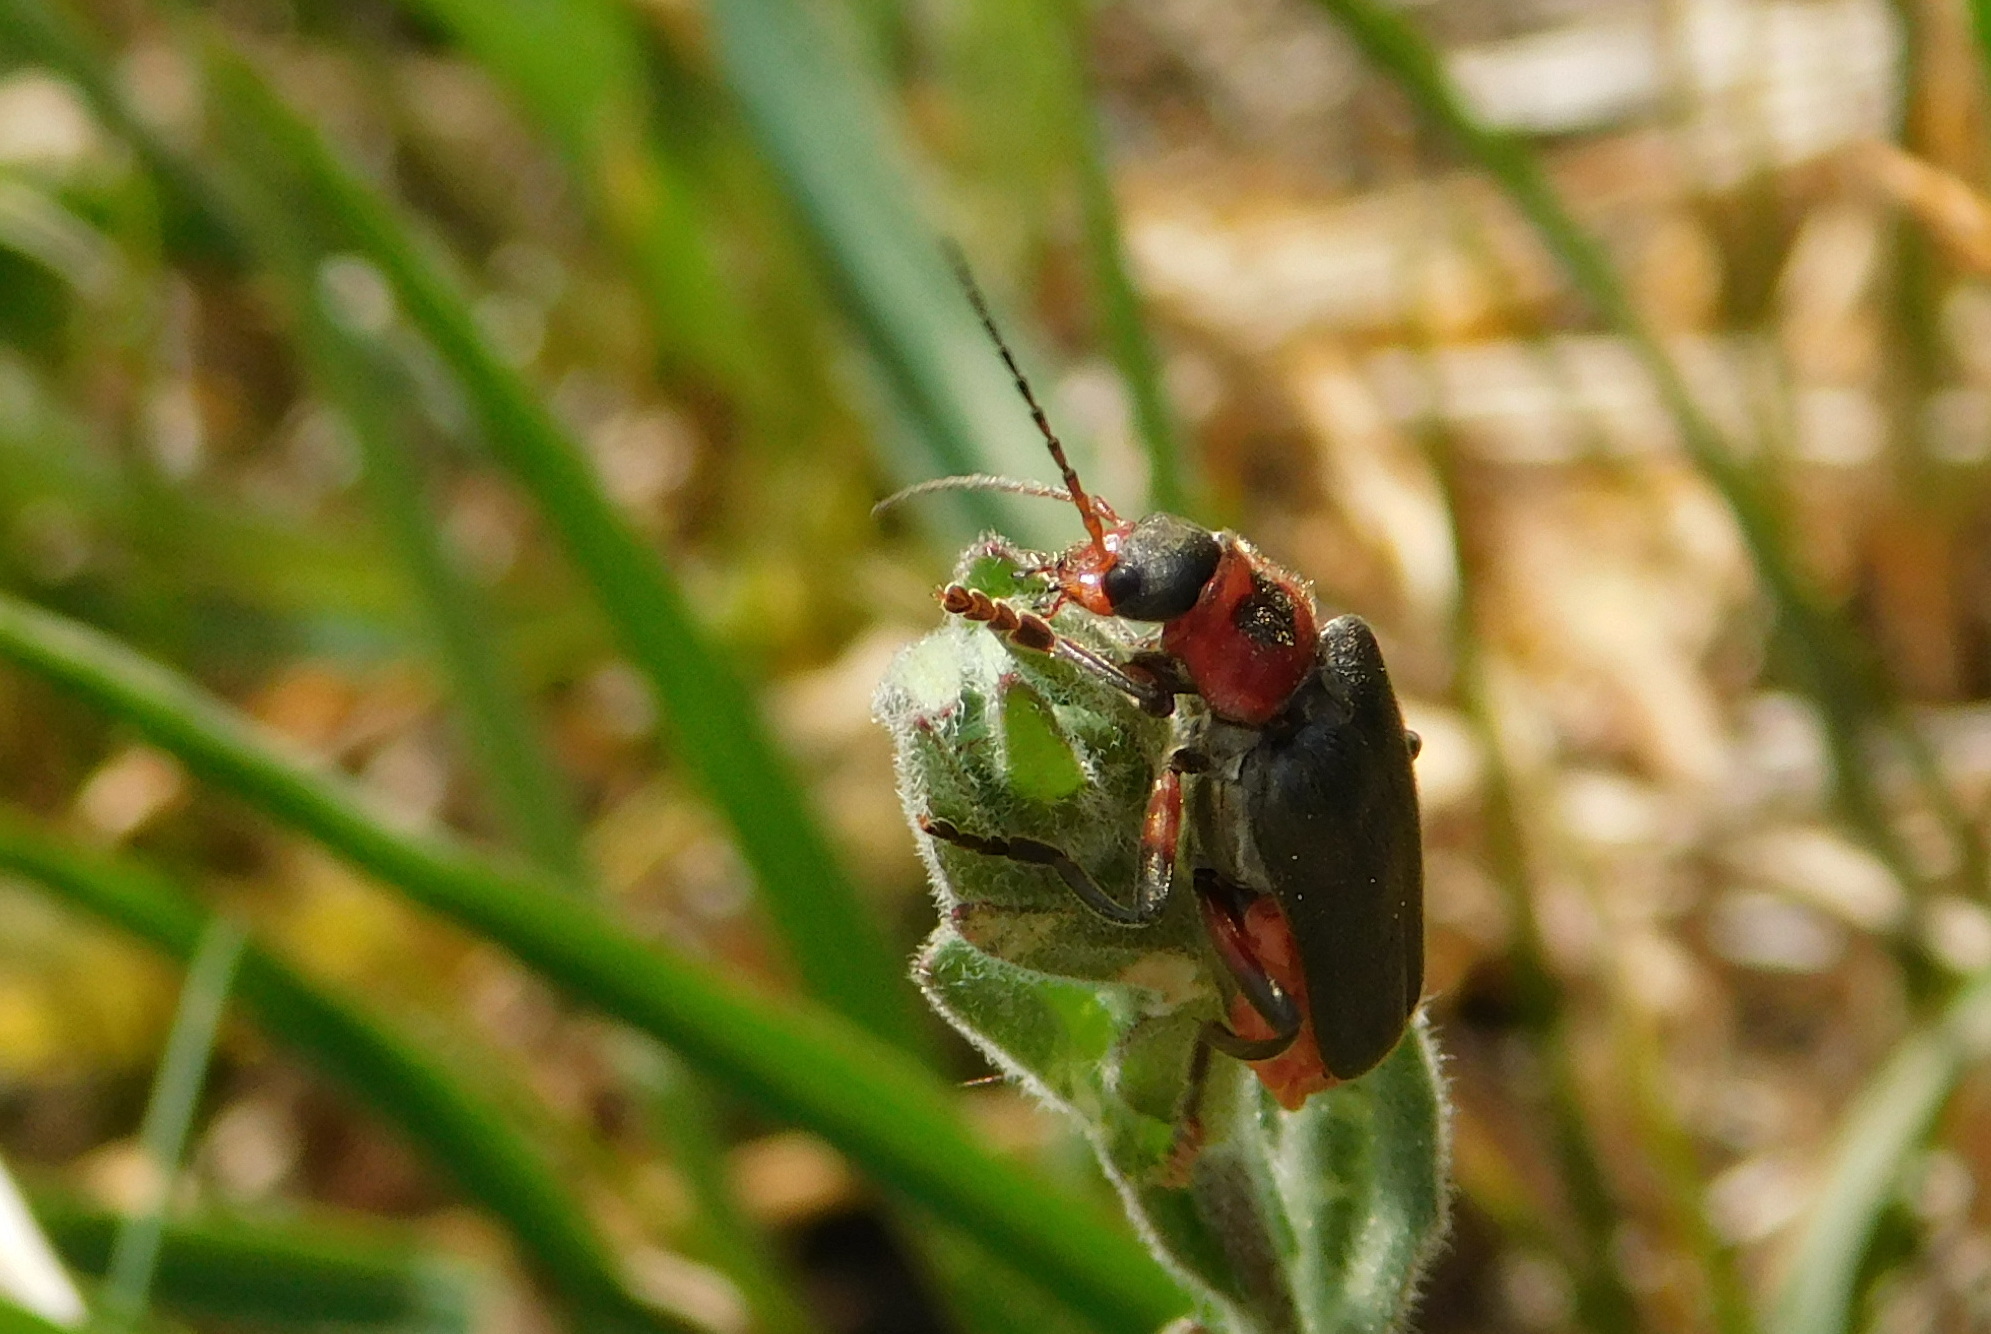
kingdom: Animalia
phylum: Arthropoda
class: Insecta
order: Coleoptera
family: Cantharidae
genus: Cantharis
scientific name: Cantharis rustica
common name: Soldier beetle
